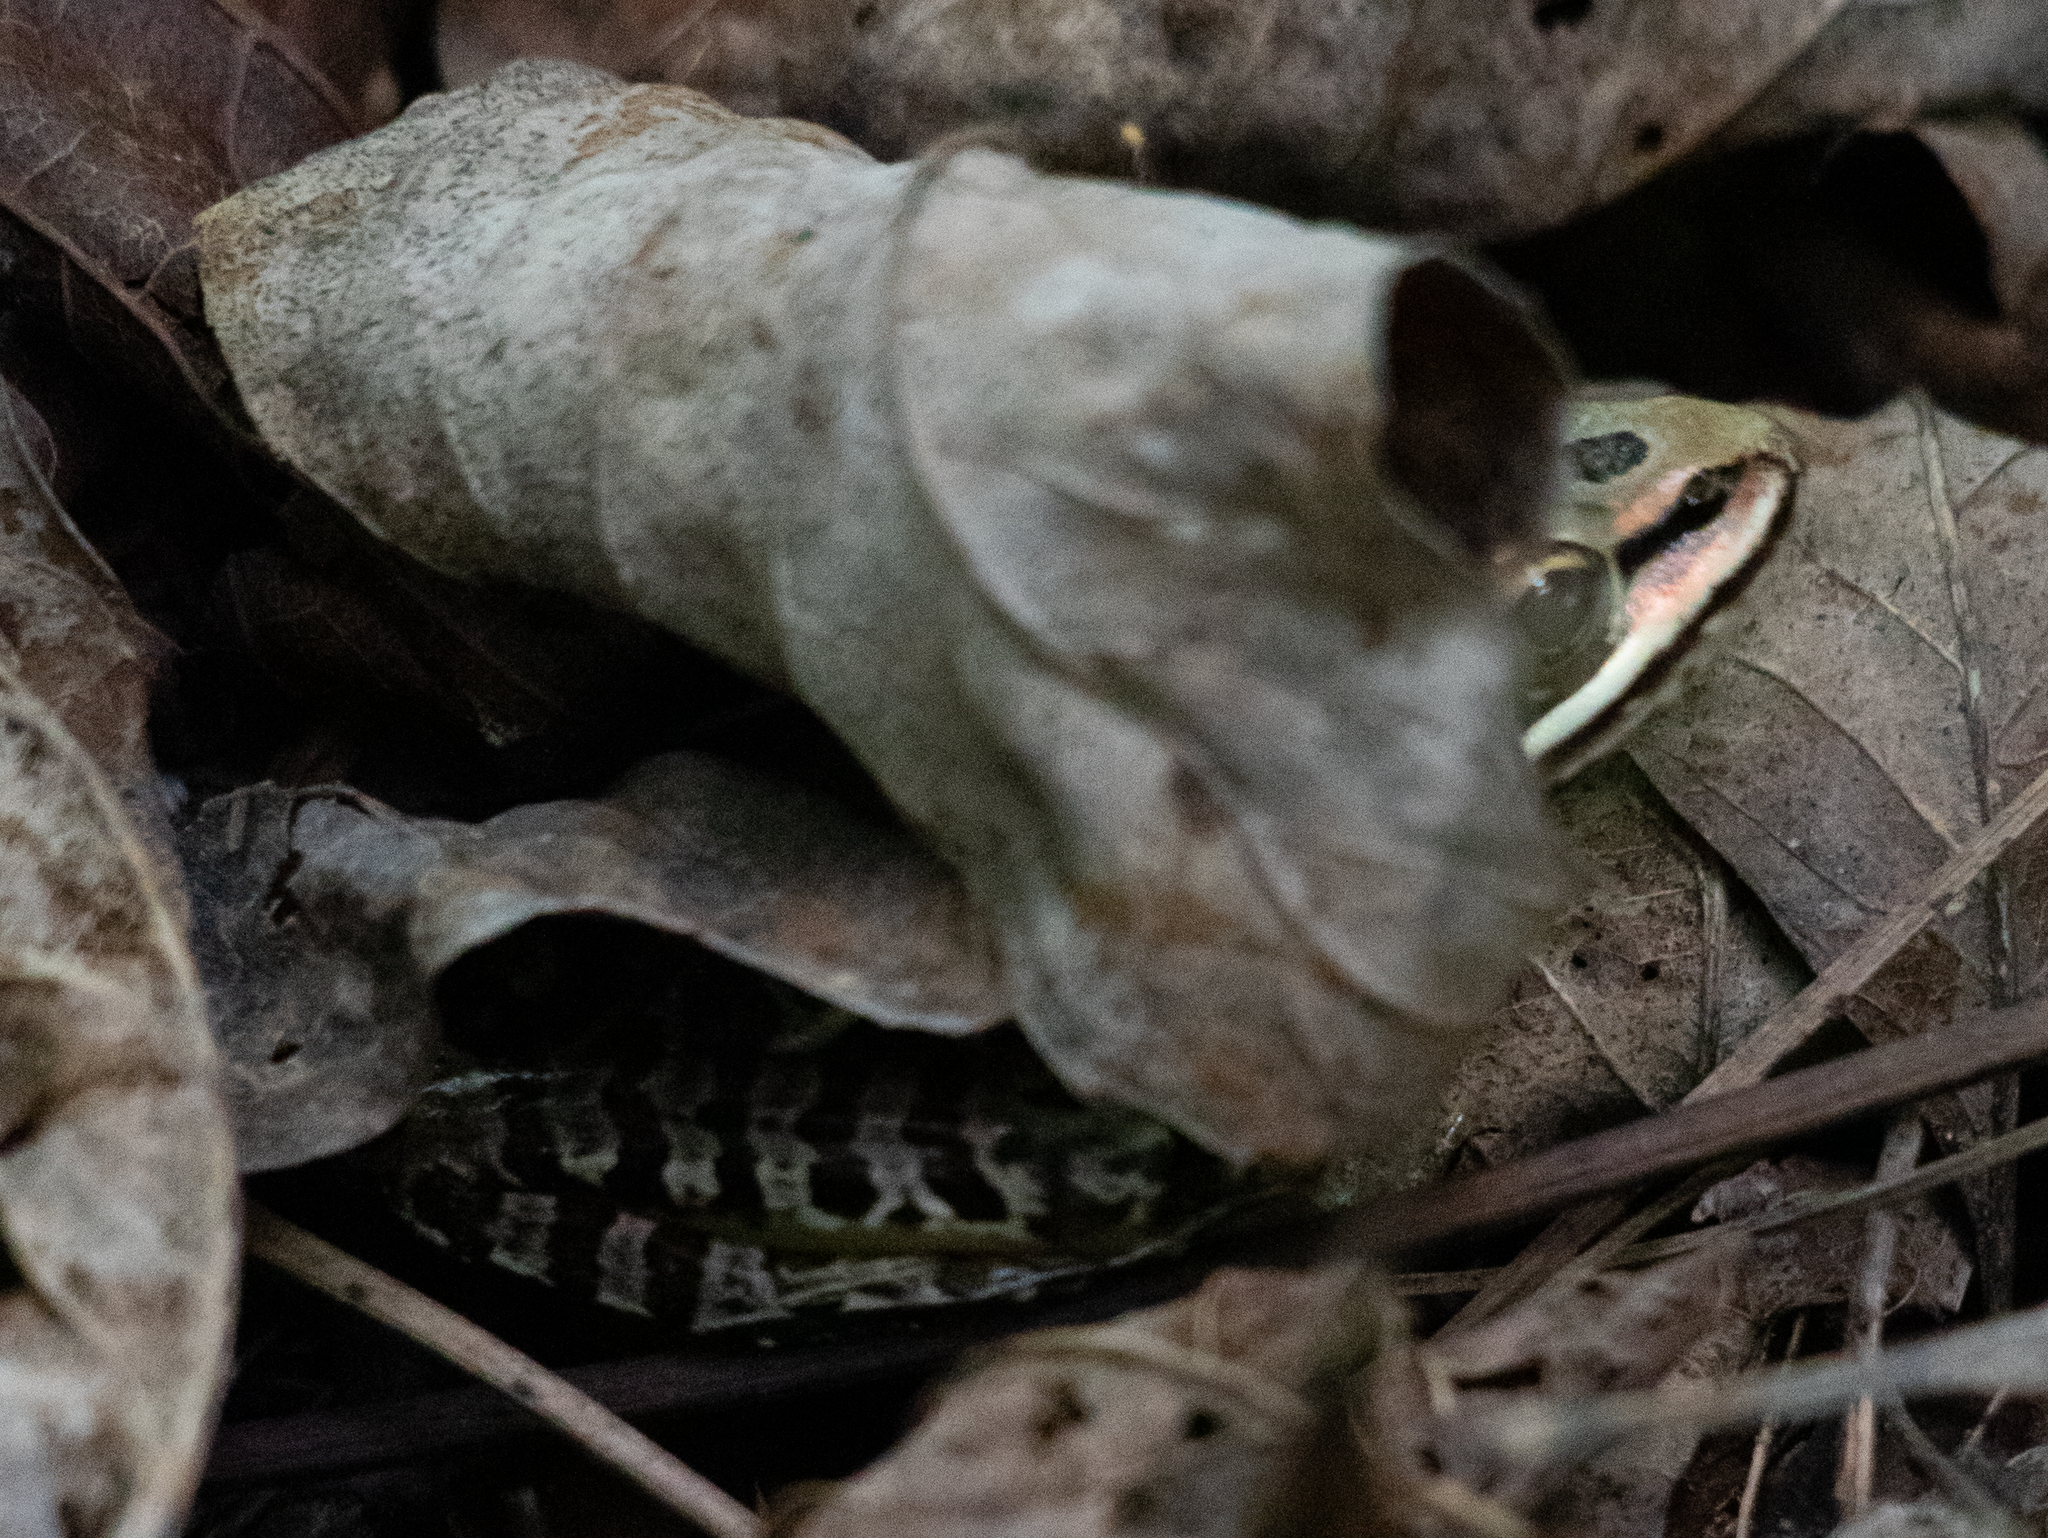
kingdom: Animalia
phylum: Chordata
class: Amphibia
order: Anura
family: Ranidae
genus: Lithobates
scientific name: Lithobates palustris
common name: Pickerel frog
